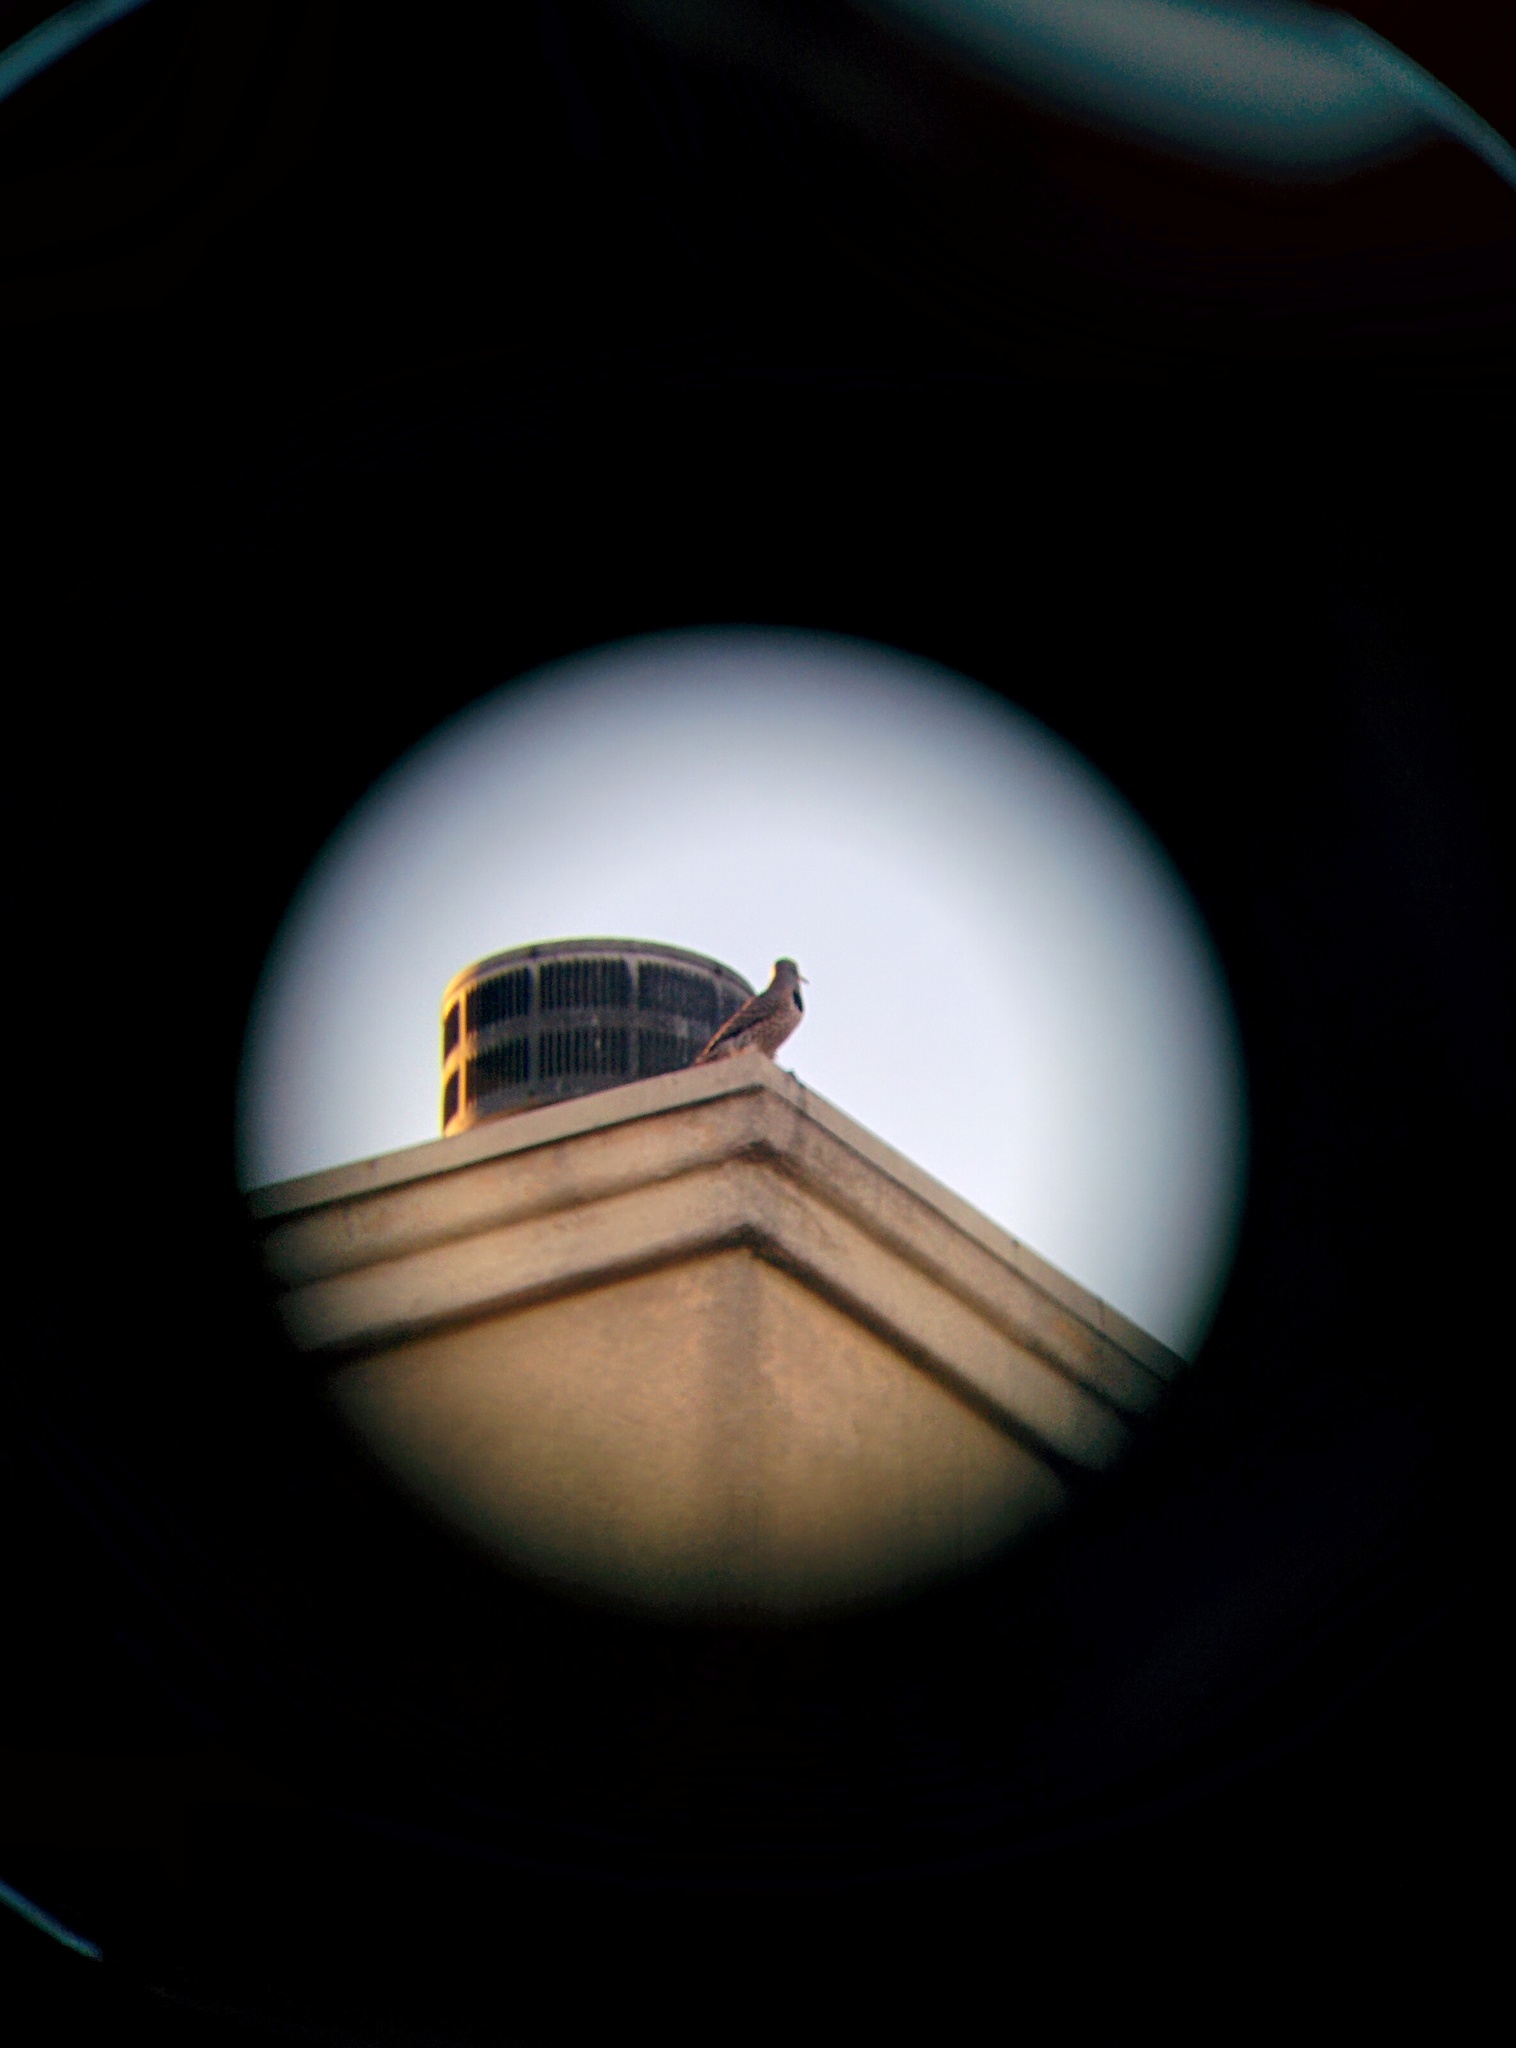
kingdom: Animalia
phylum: Chordata
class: Aves
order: Piciformes
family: Picidae
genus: Colaptes
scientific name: Colaptes auratus
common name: Northern flicker
